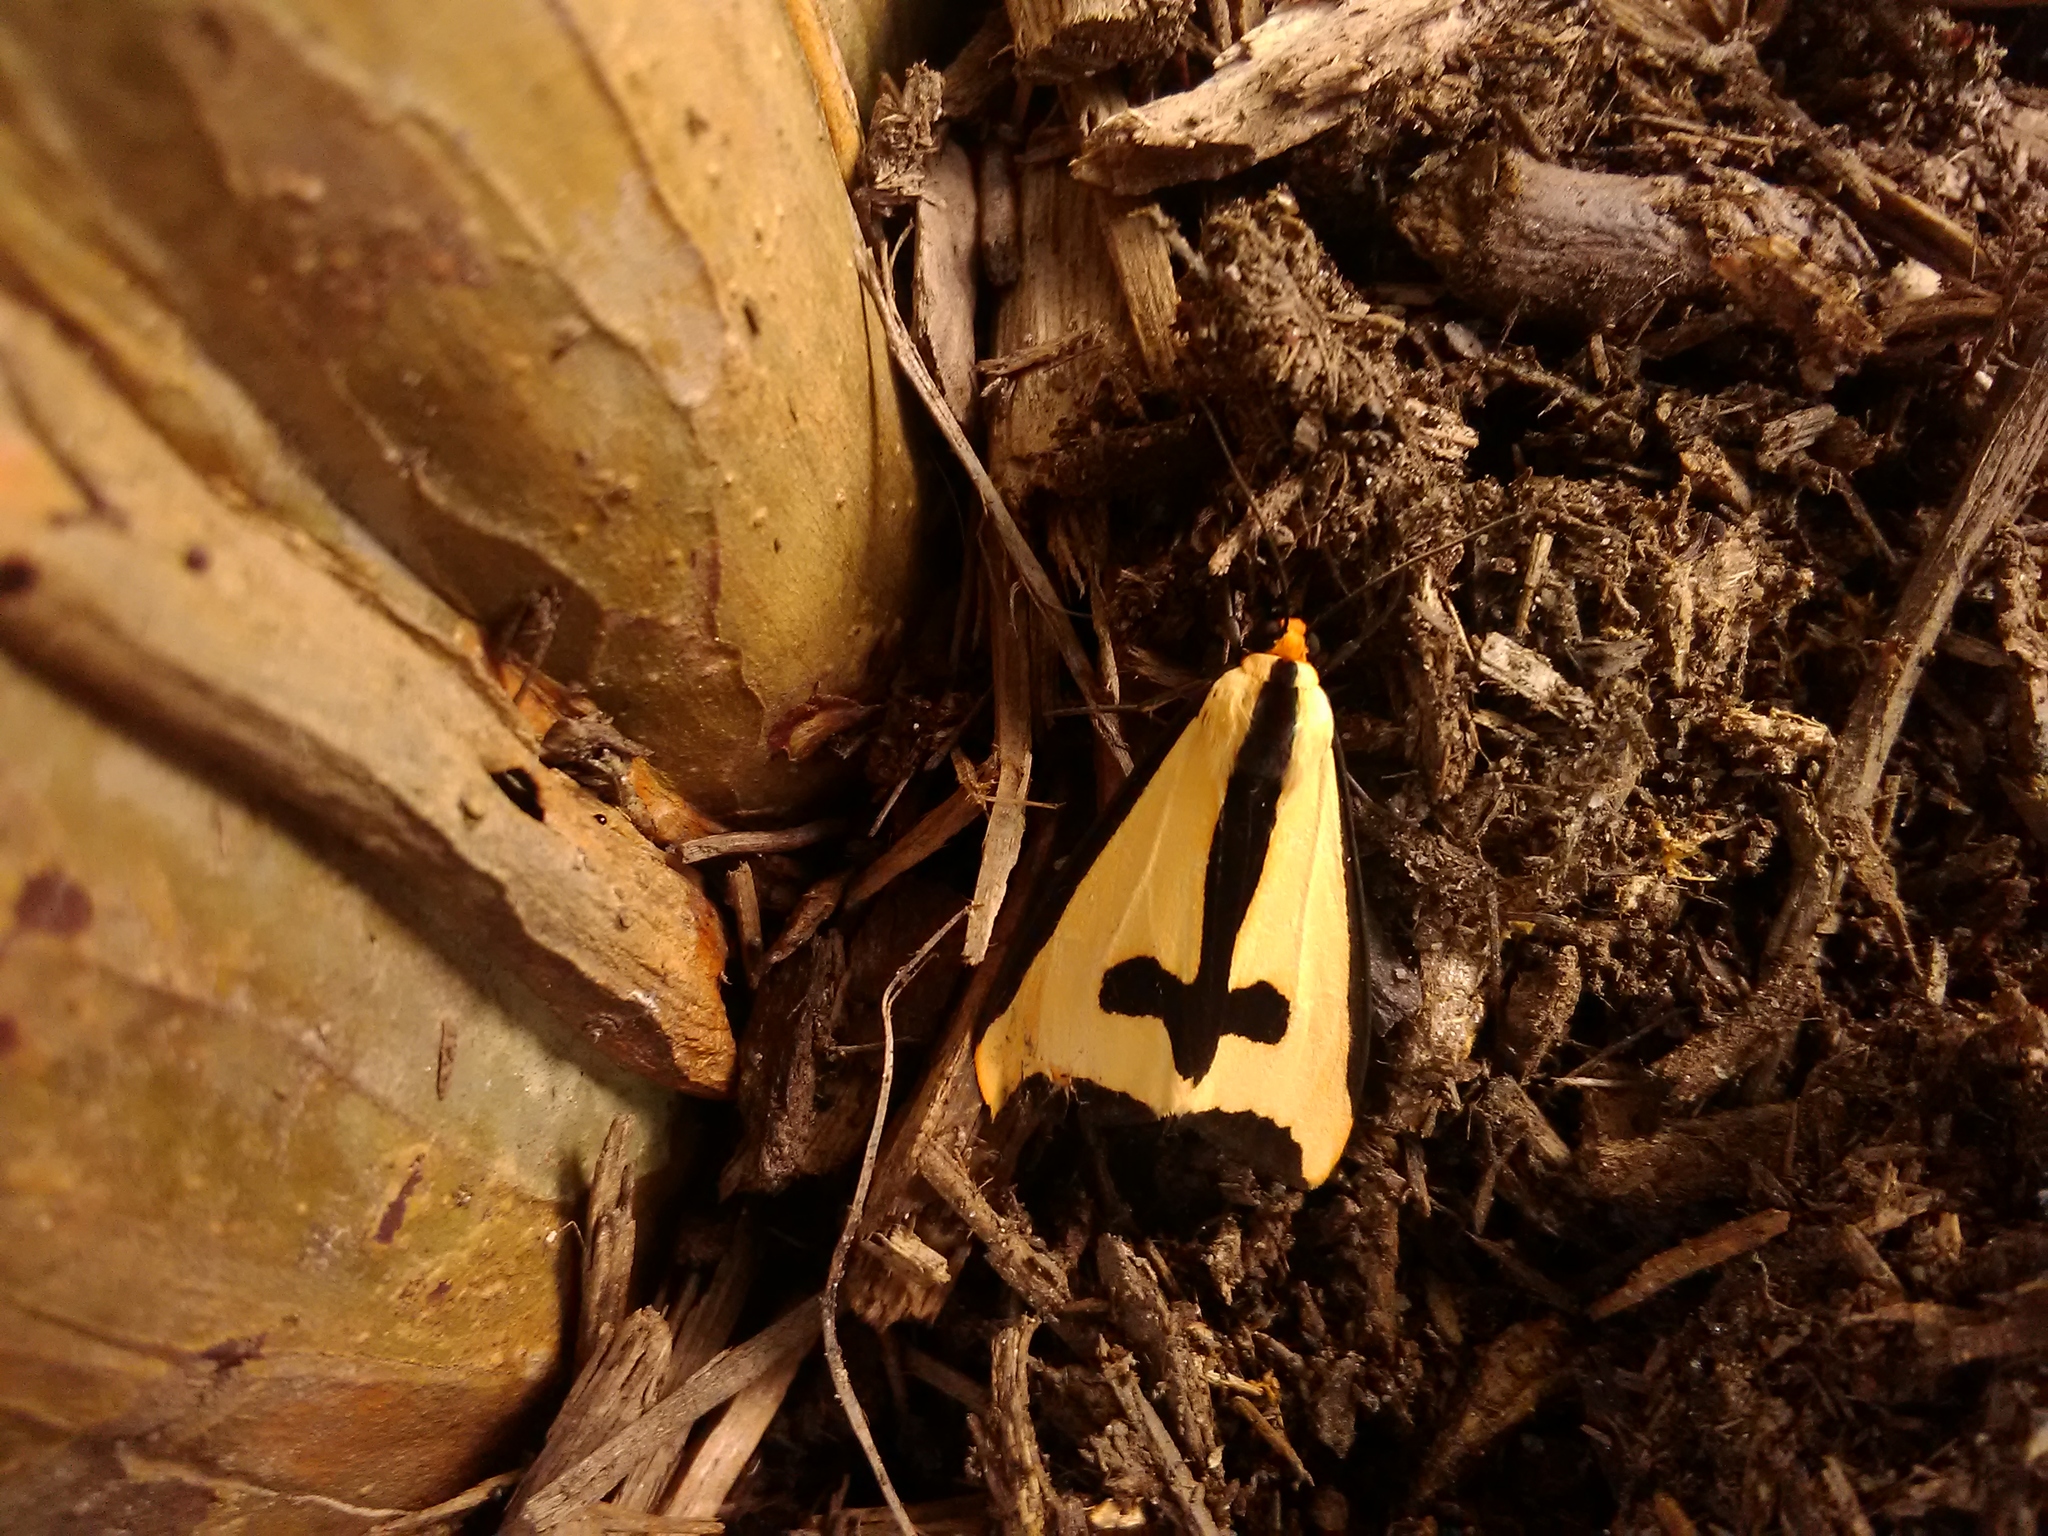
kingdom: Animalia
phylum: Arthropoda
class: Insecta
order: Lepidoptera
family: Erebidae
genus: Haploa
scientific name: Haploa clymene
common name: Clymene moth
